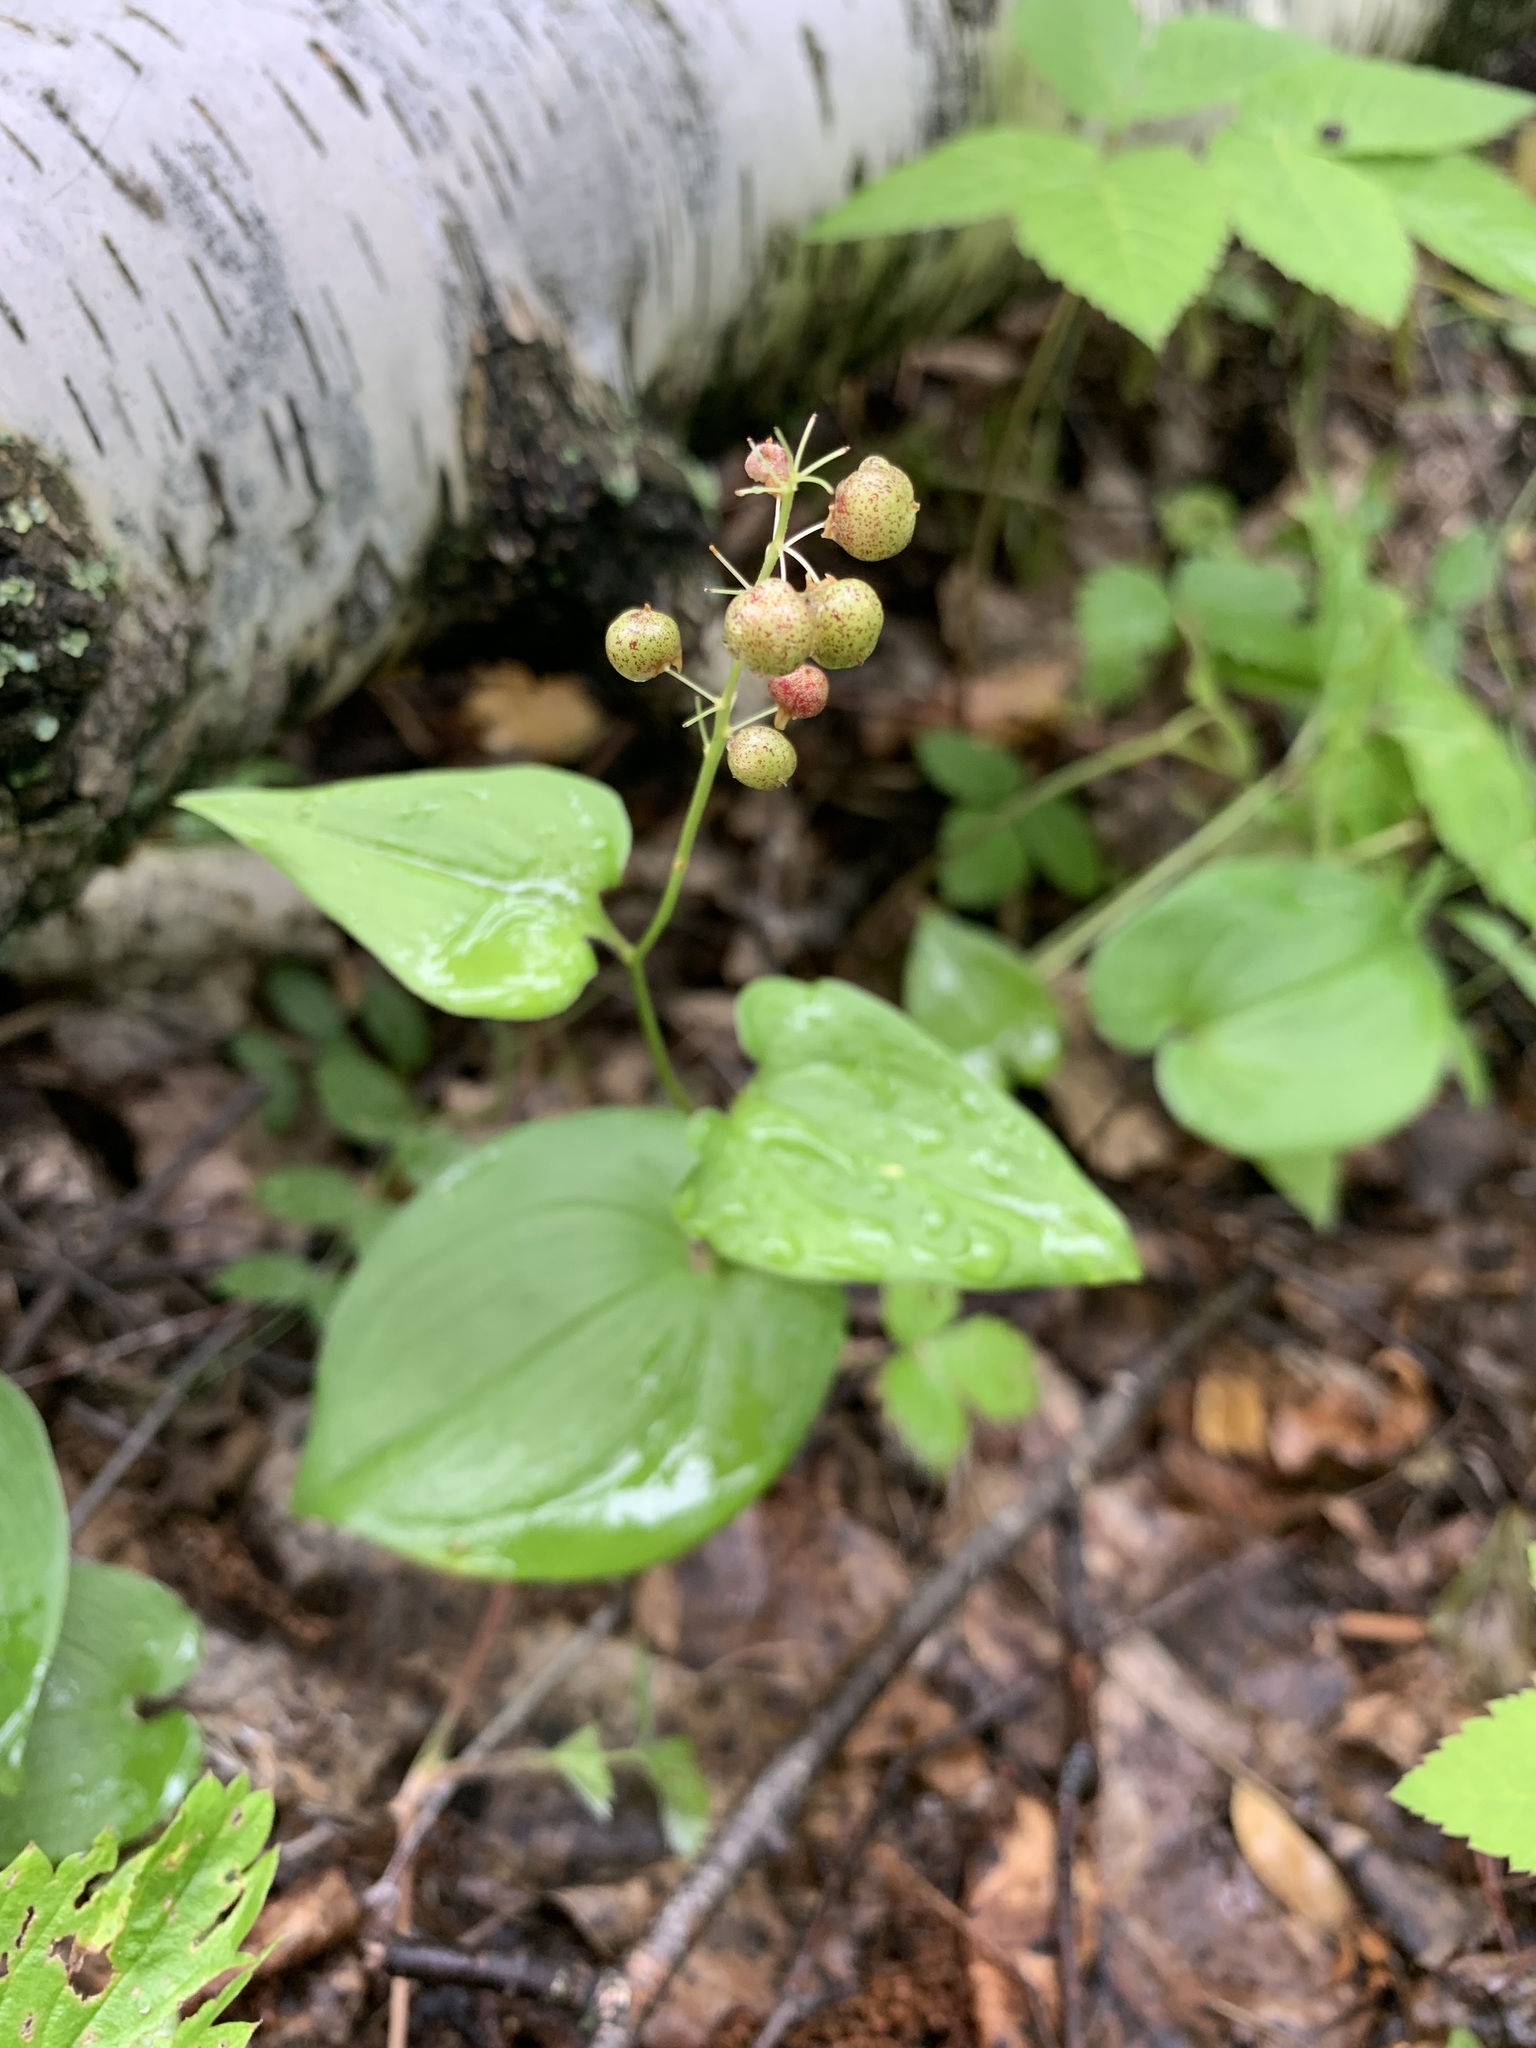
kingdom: Plantae
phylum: Tracheophyta
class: Liliopsida
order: Asparagales
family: Asparagaceae
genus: Maianthemum
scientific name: Maianthemum bifolium
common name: May lily
